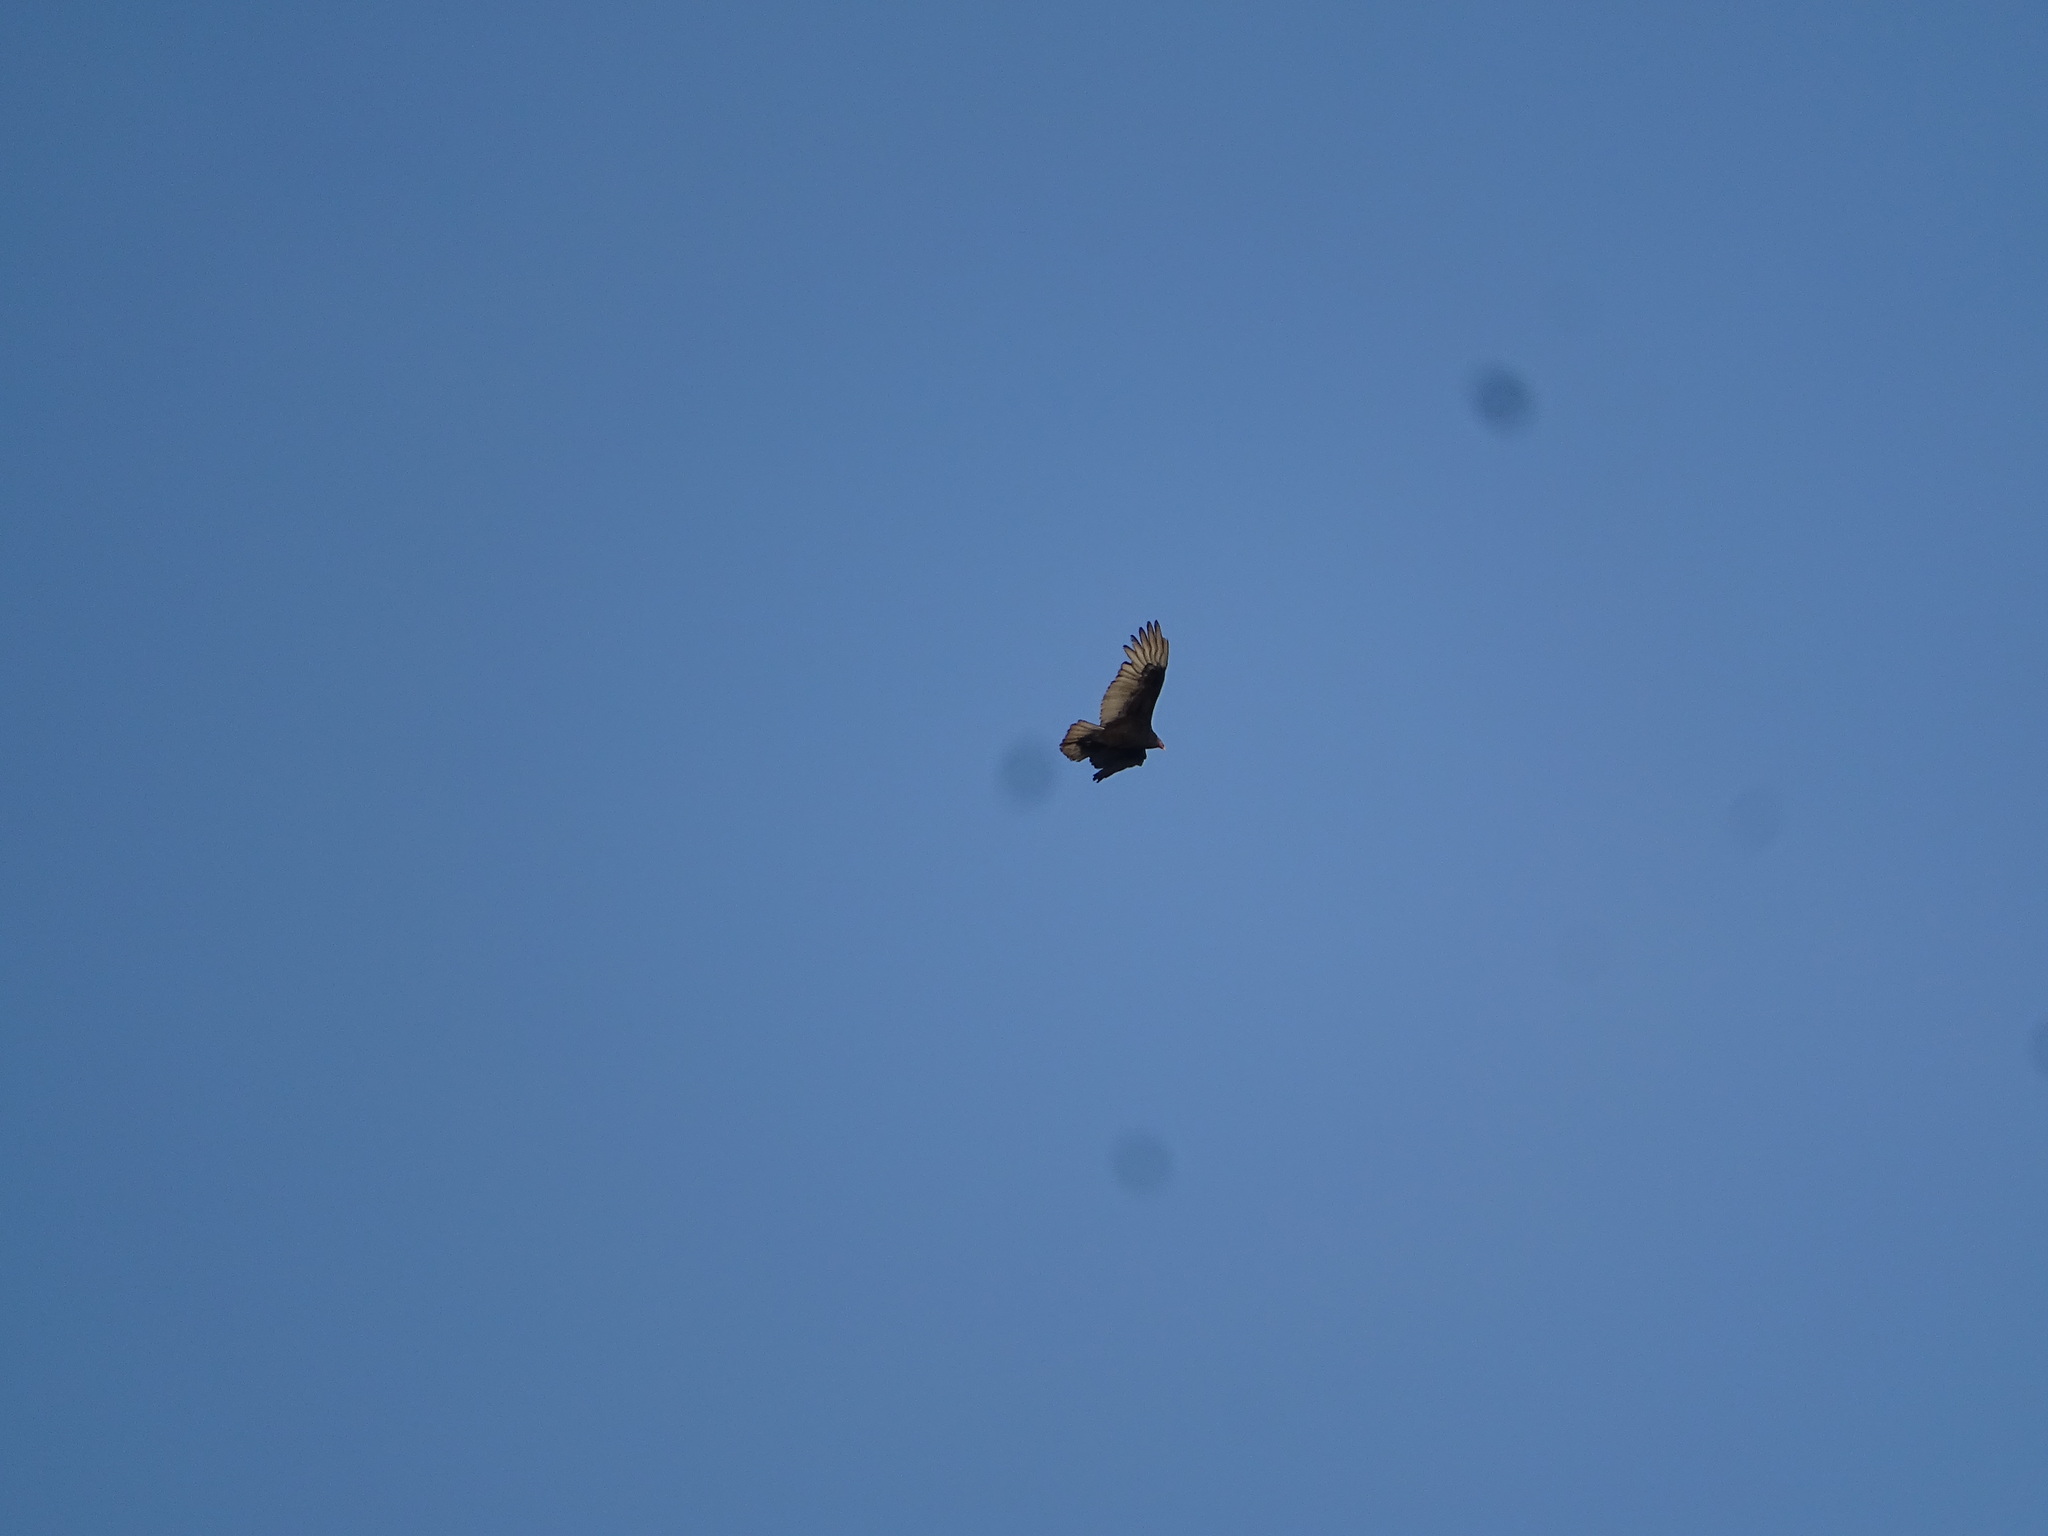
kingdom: Animalia
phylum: Chordata
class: Aves
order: Accipitriformes
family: Cathartidae
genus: Cathartes
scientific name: Cathartes aura
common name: Turkey vulture
